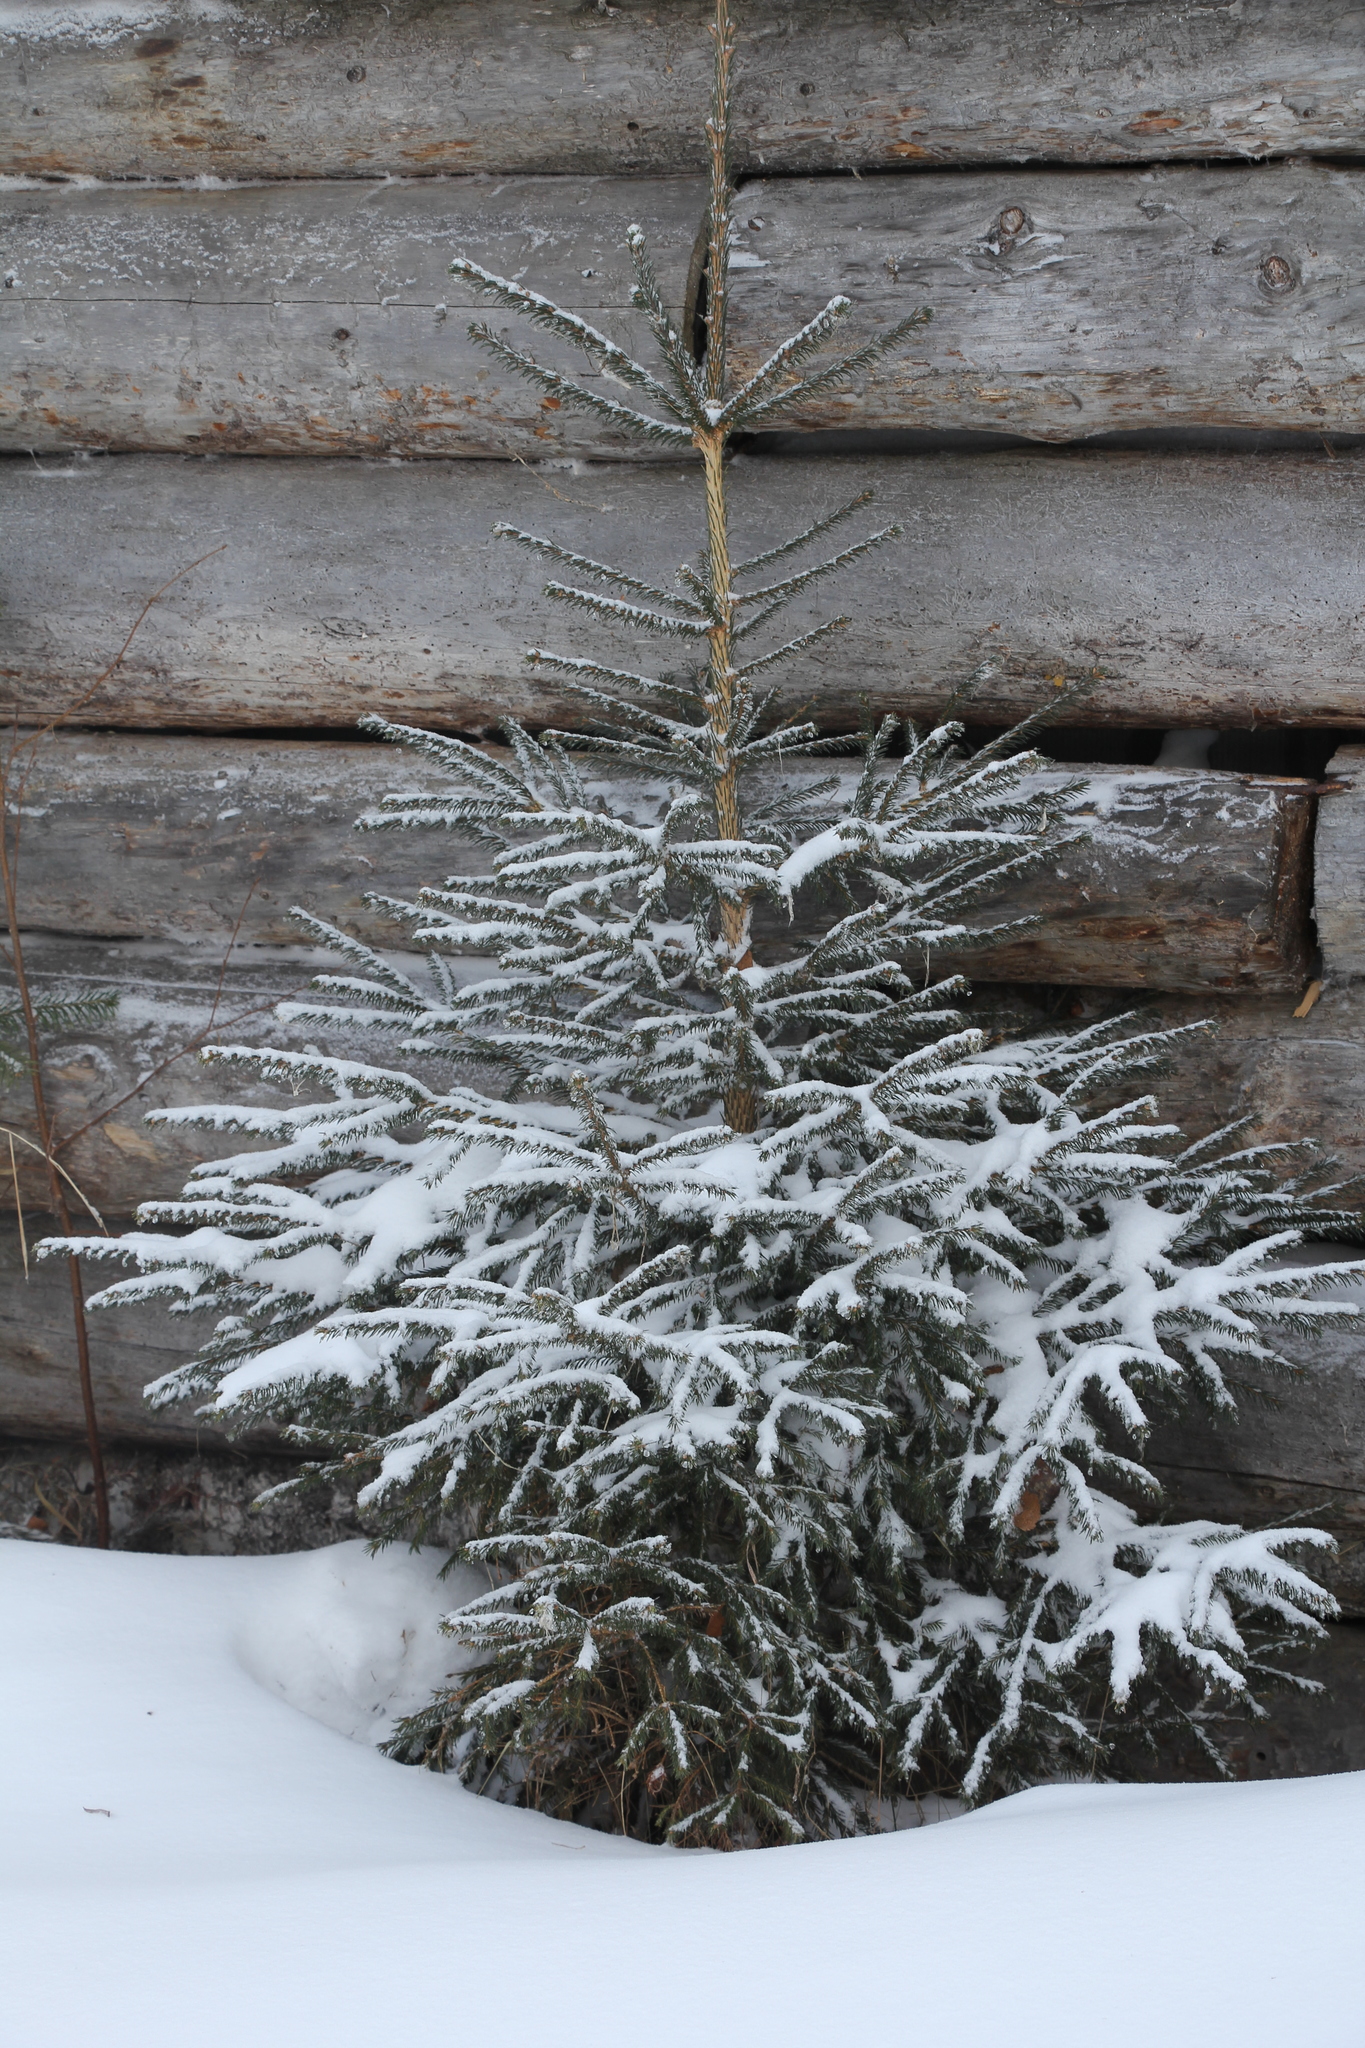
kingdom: Plantae
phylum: Tracheophyta
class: Pinopsida
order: Pinales
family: Pinaceae
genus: Picea
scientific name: Picea obovata
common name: Siberian spruce
